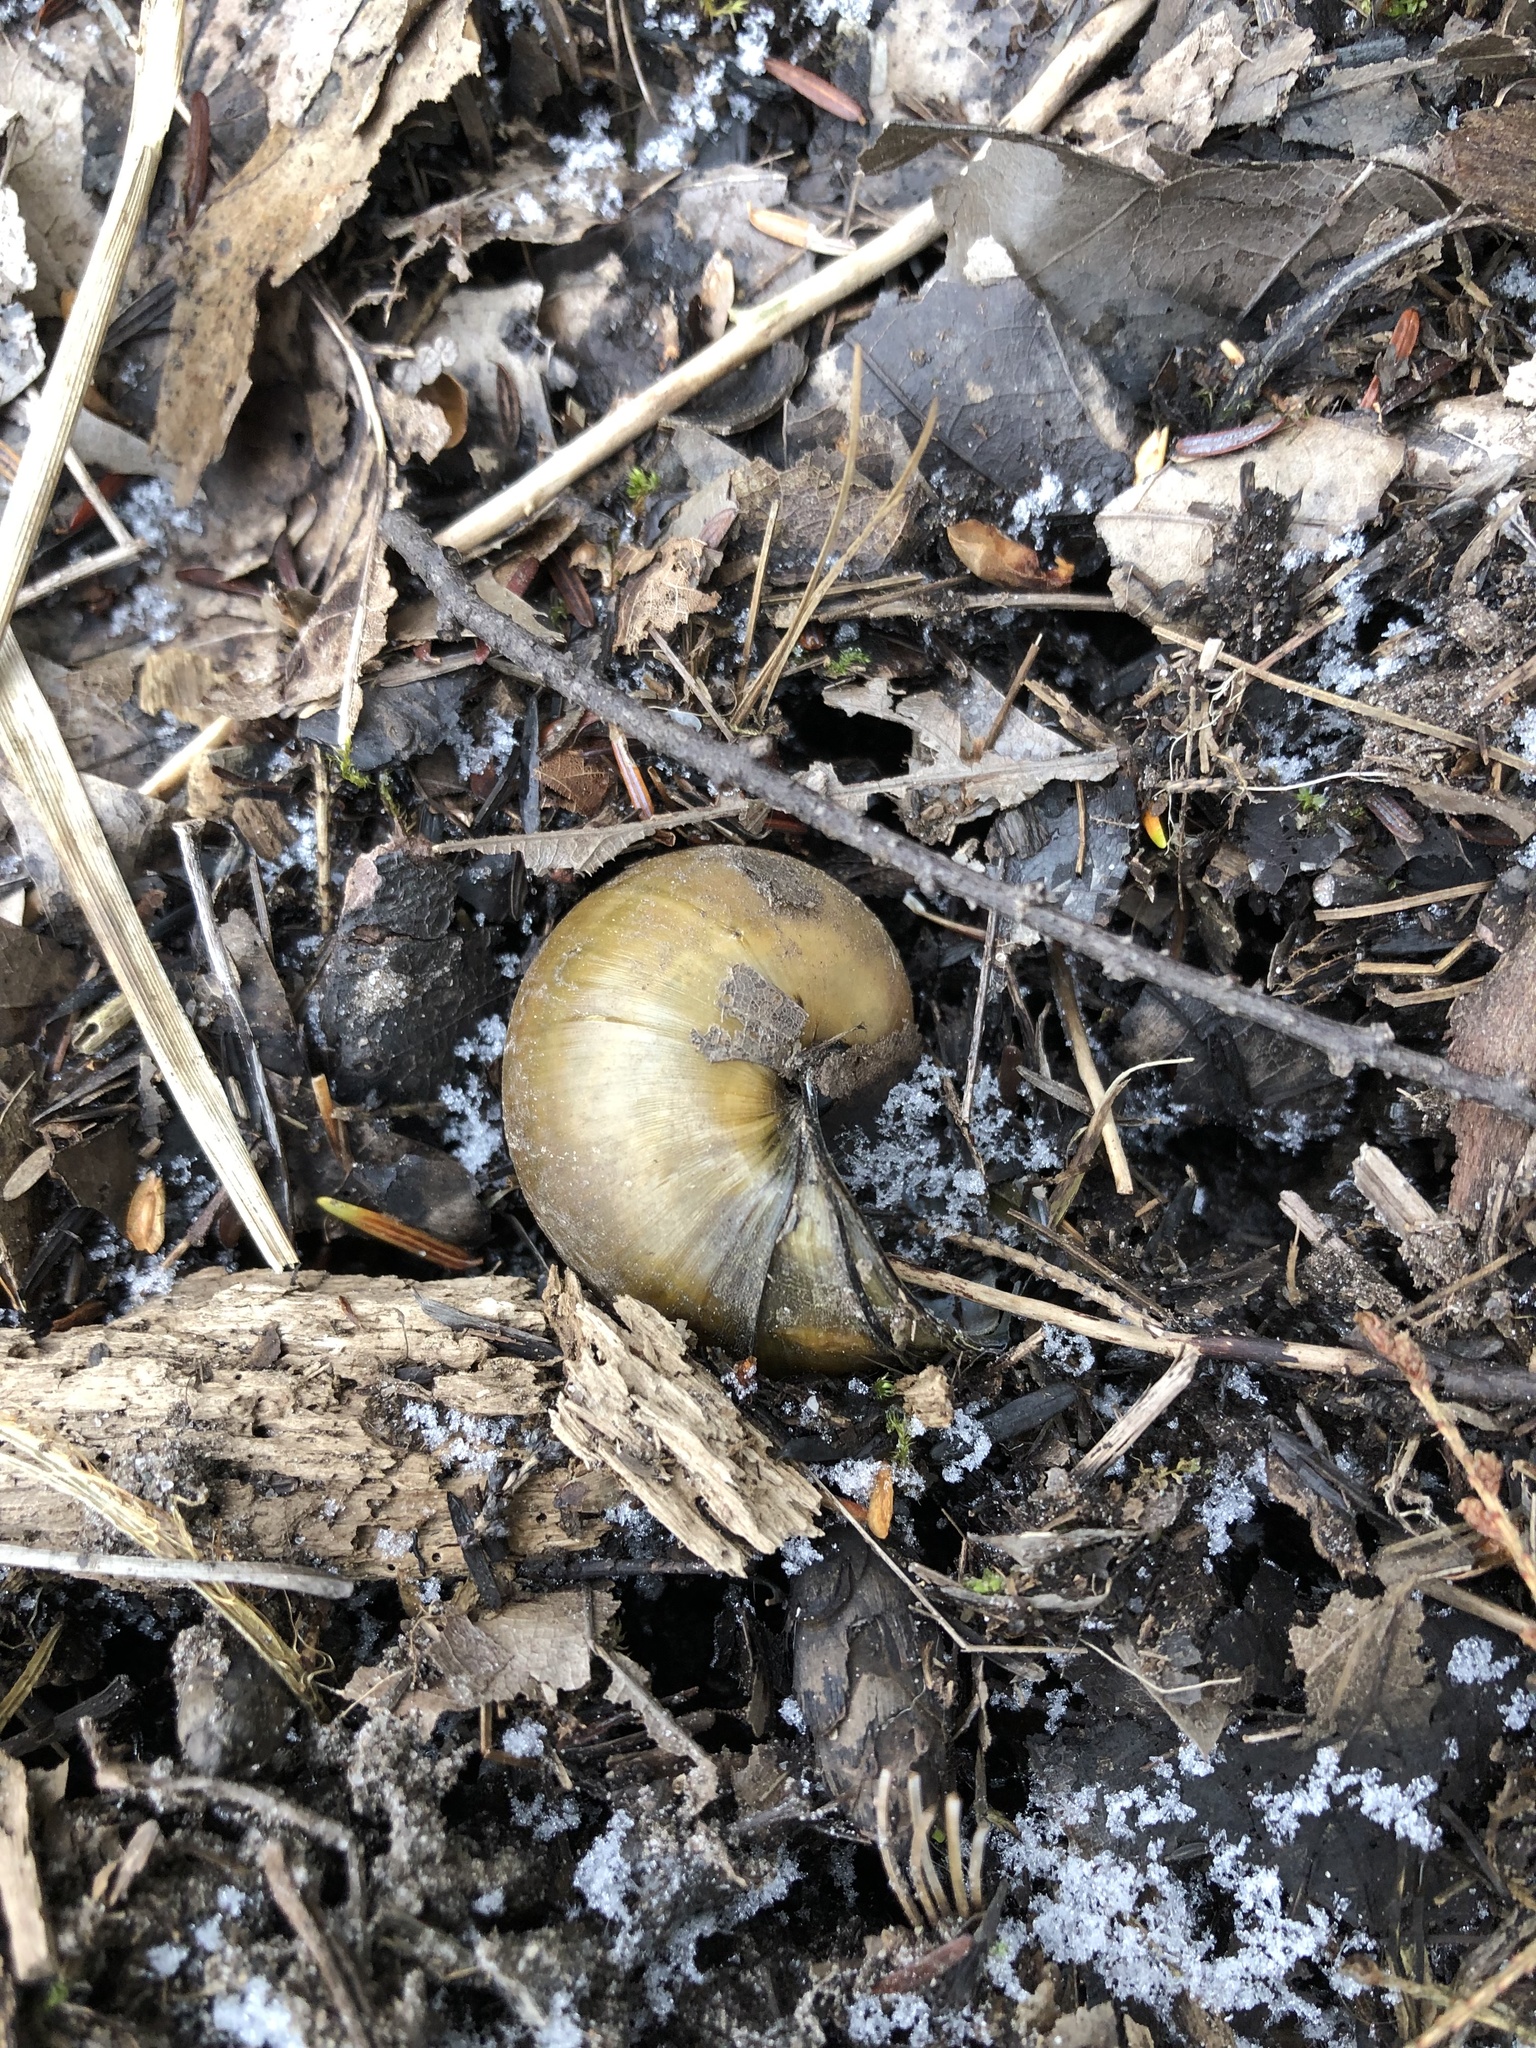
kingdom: Animalia
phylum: Mollusca
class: Gastropoda
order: Architaenioglossa
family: Viviparidae
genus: Cipangopaludina
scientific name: Cipangopaludina chinensis
